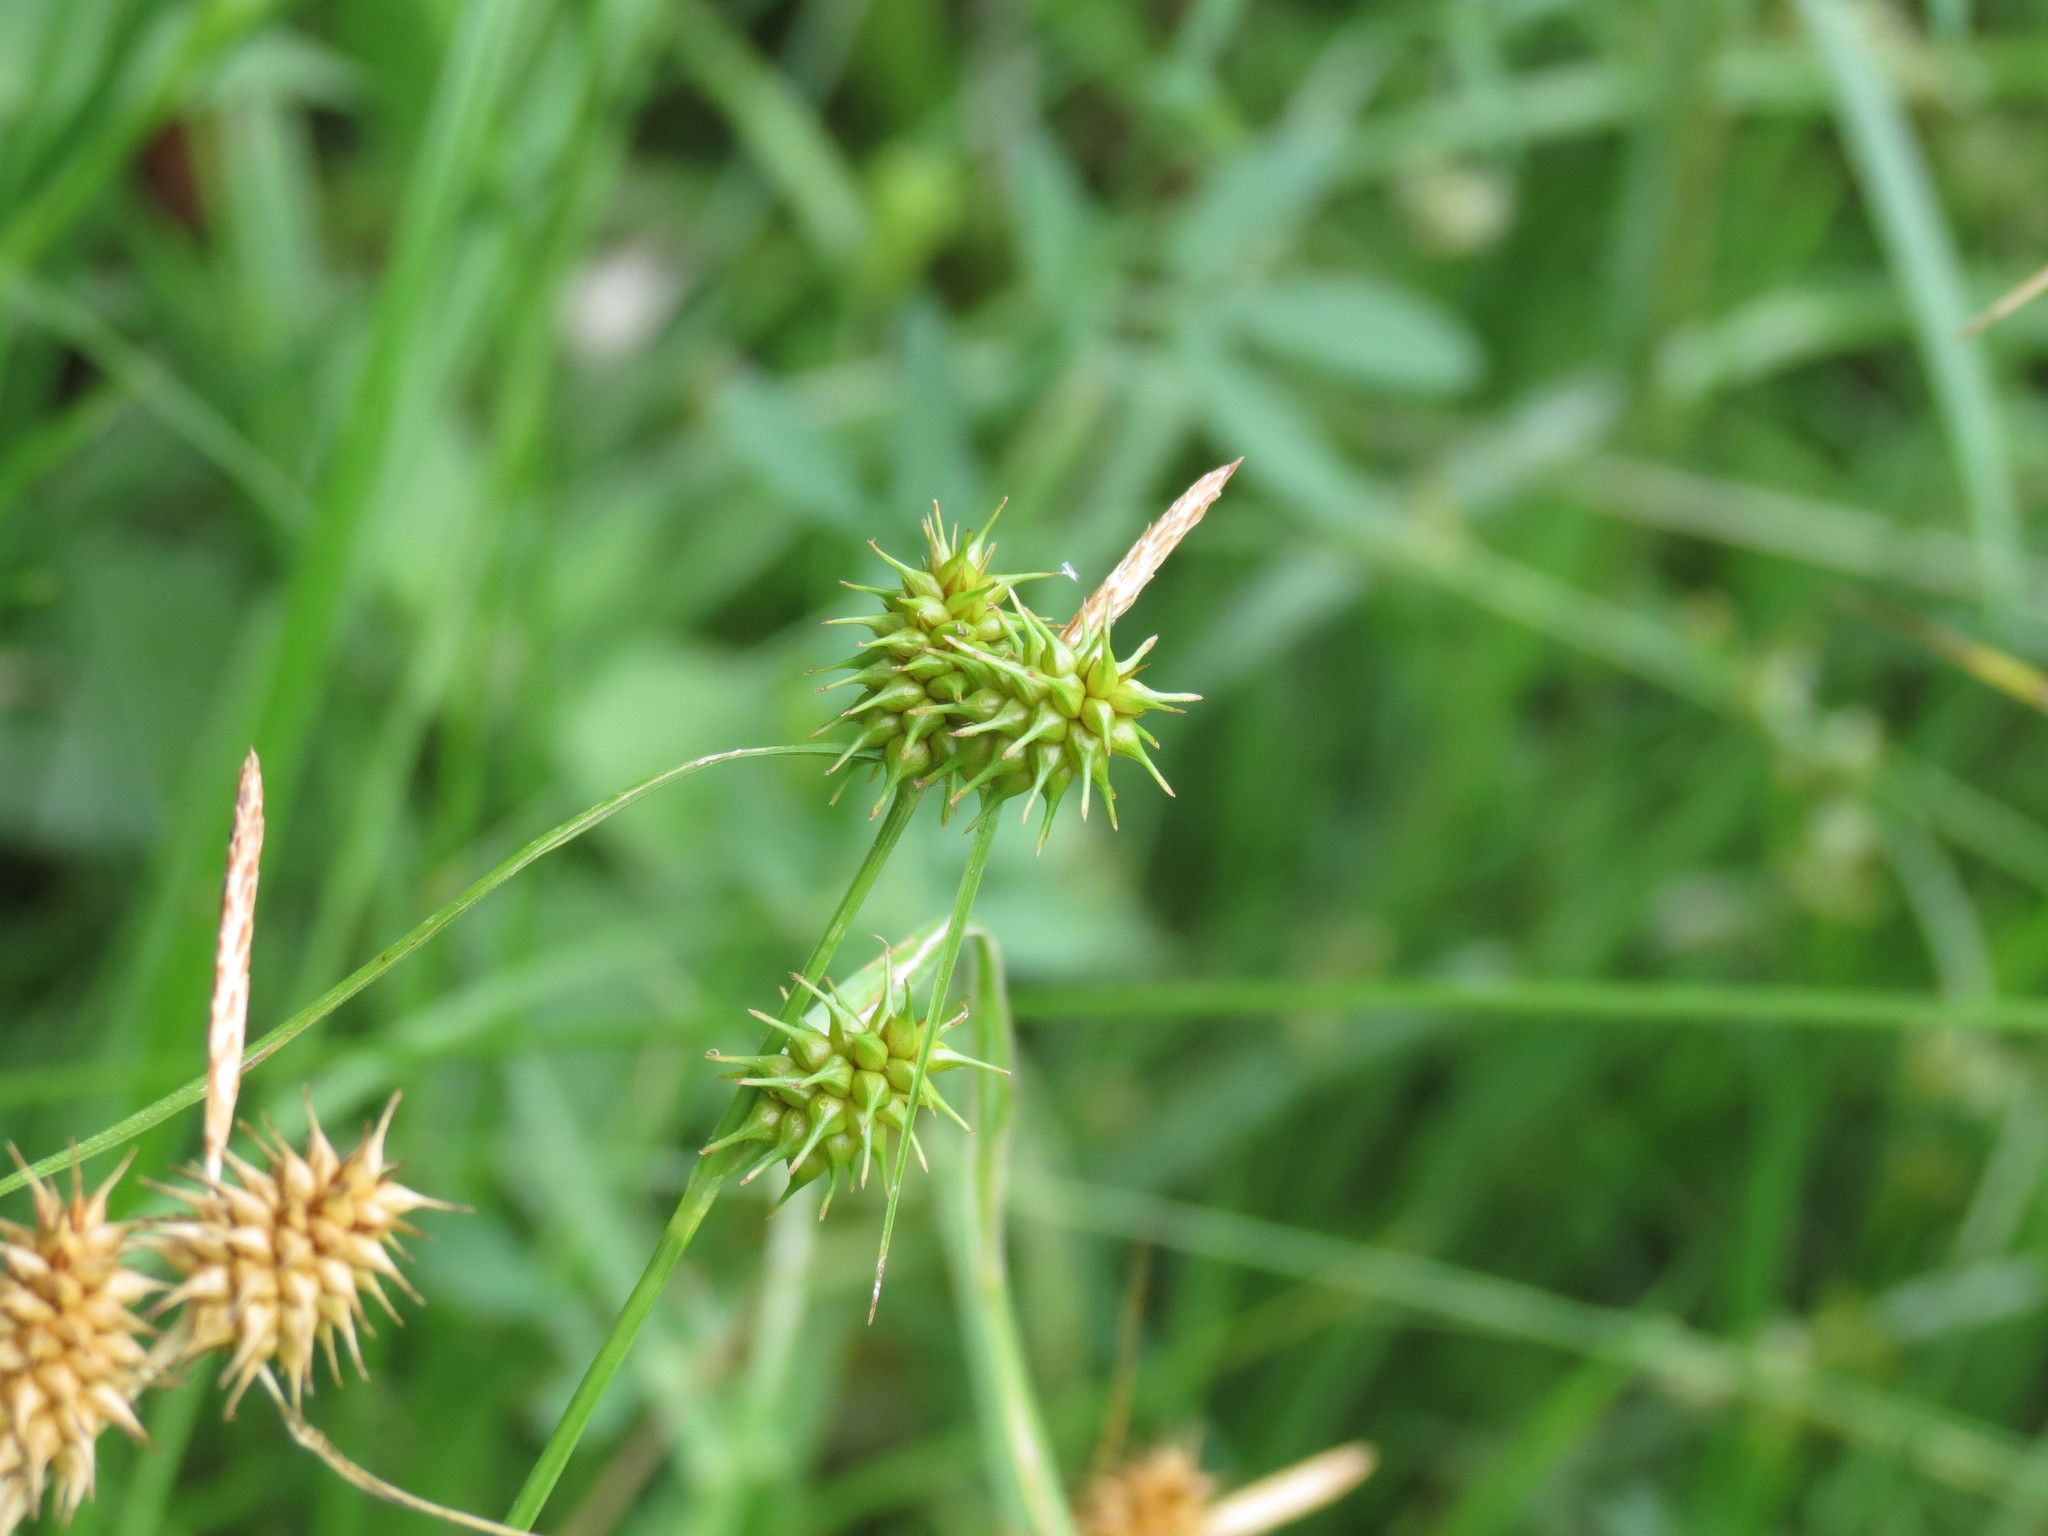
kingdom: Plantae
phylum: Tracheophyta
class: Liliopsida
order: Poales
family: Cyperaceae
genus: Carex
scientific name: Carex flava
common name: Large yellow-sedge
